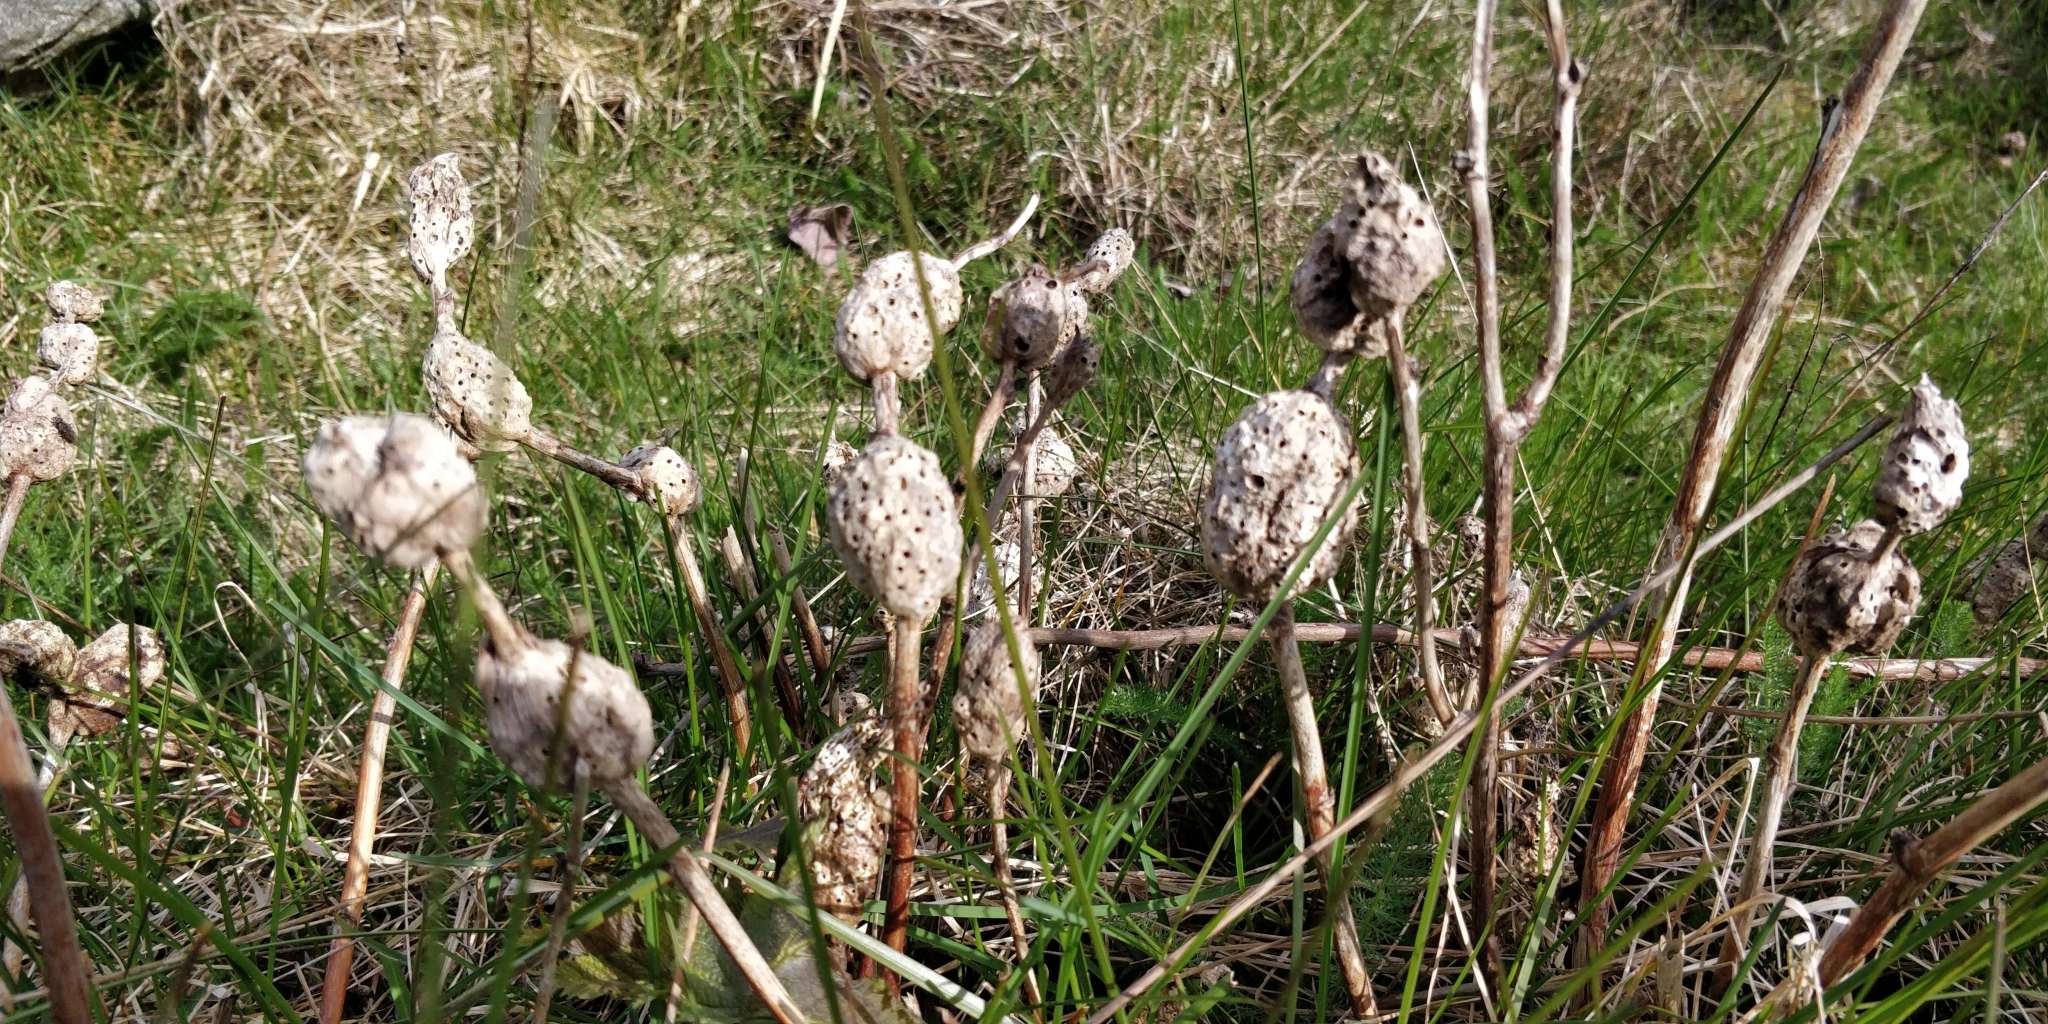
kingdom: Animalia
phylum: Arthropoda
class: Insecta
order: Hymenoptera
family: Cynipidae
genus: Diastrophus
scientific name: Diastrophus
